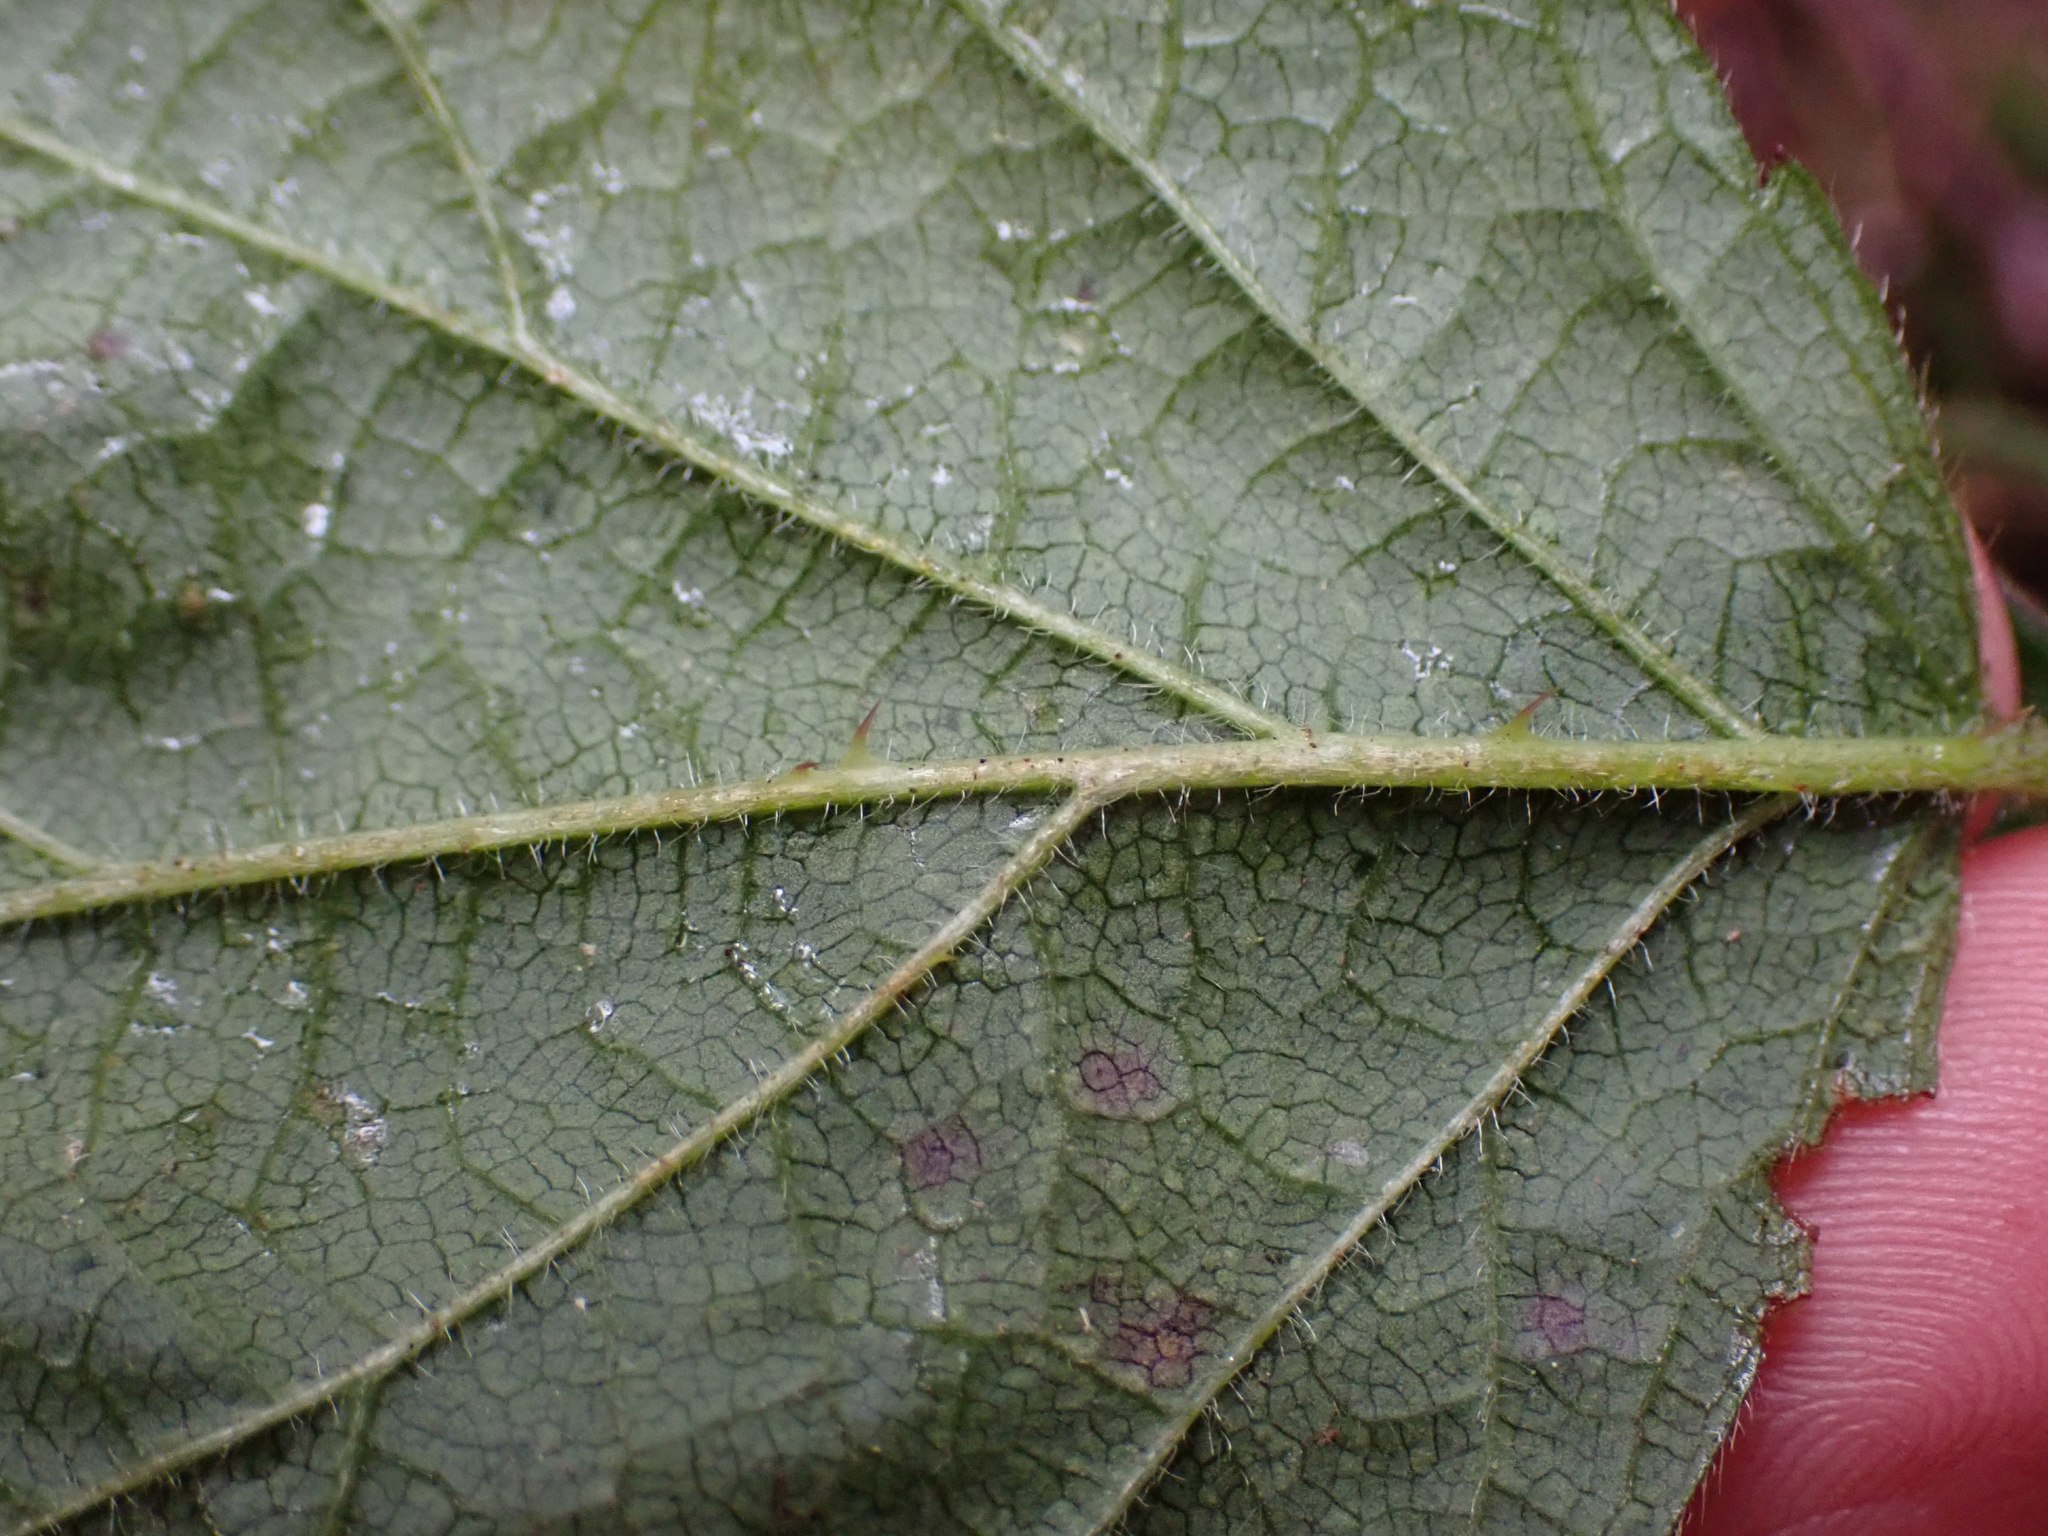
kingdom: Plantae
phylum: Tracheophyta
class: Magnoliopsida
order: Rosales
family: Rosaceae
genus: Rubus
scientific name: Rubus ursinus
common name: Pacific blackberry
